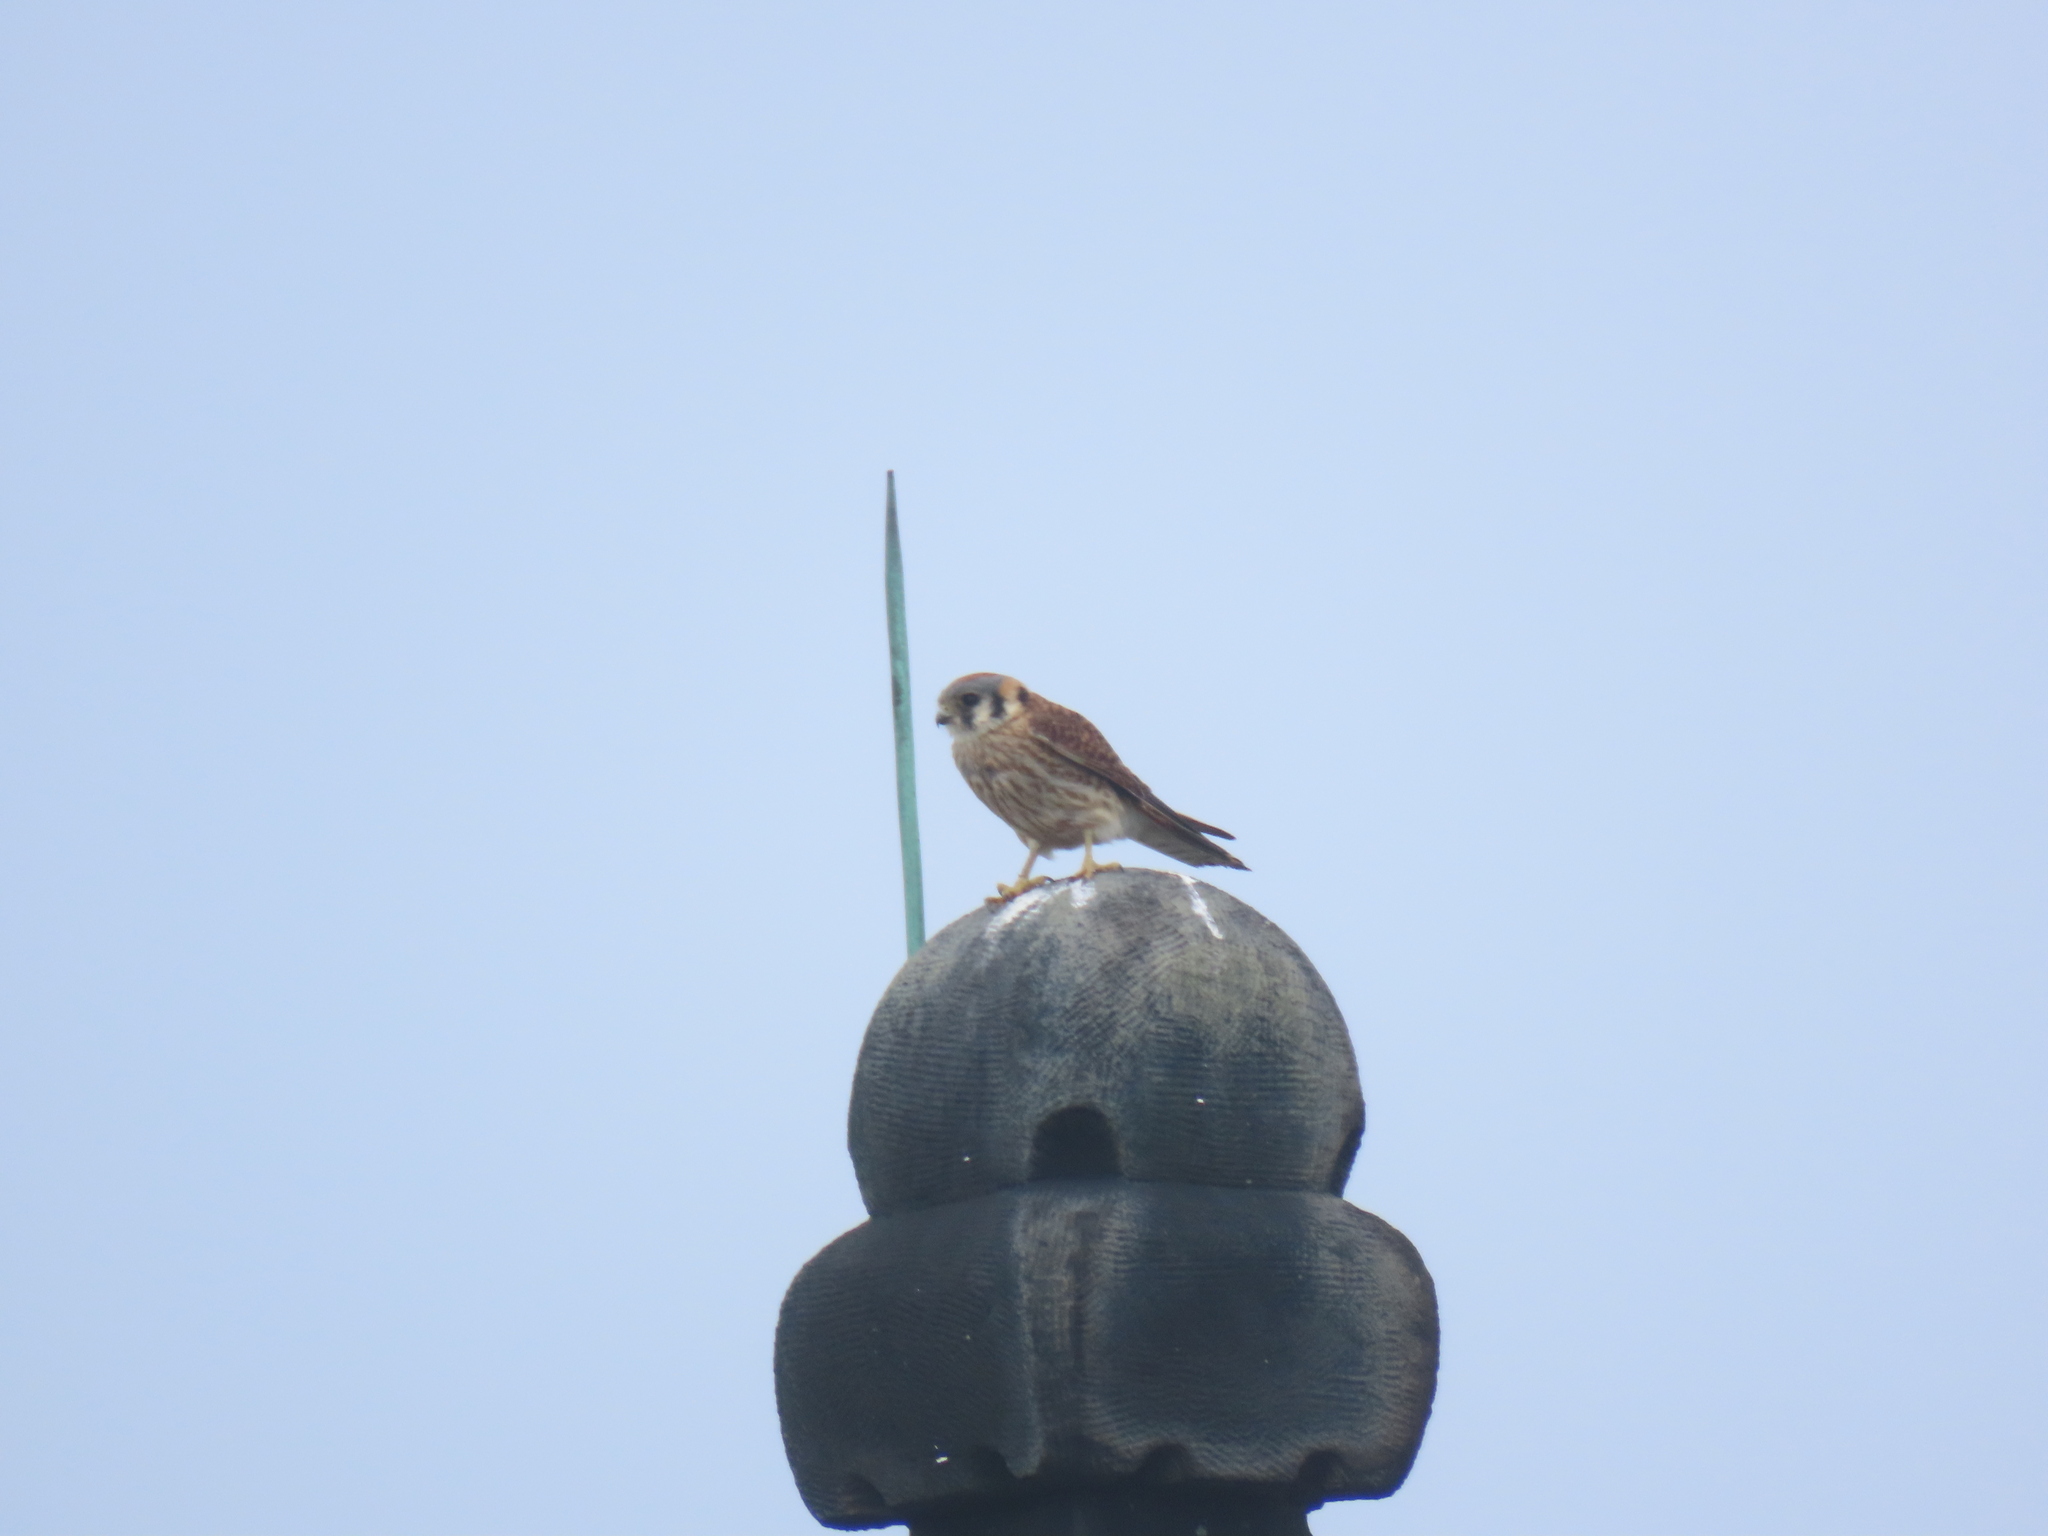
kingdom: Animalia
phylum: Chordata
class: Aves
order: Falconiformes
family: Falconidae
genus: Falco
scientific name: Falco sparverius
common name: American kestrel
